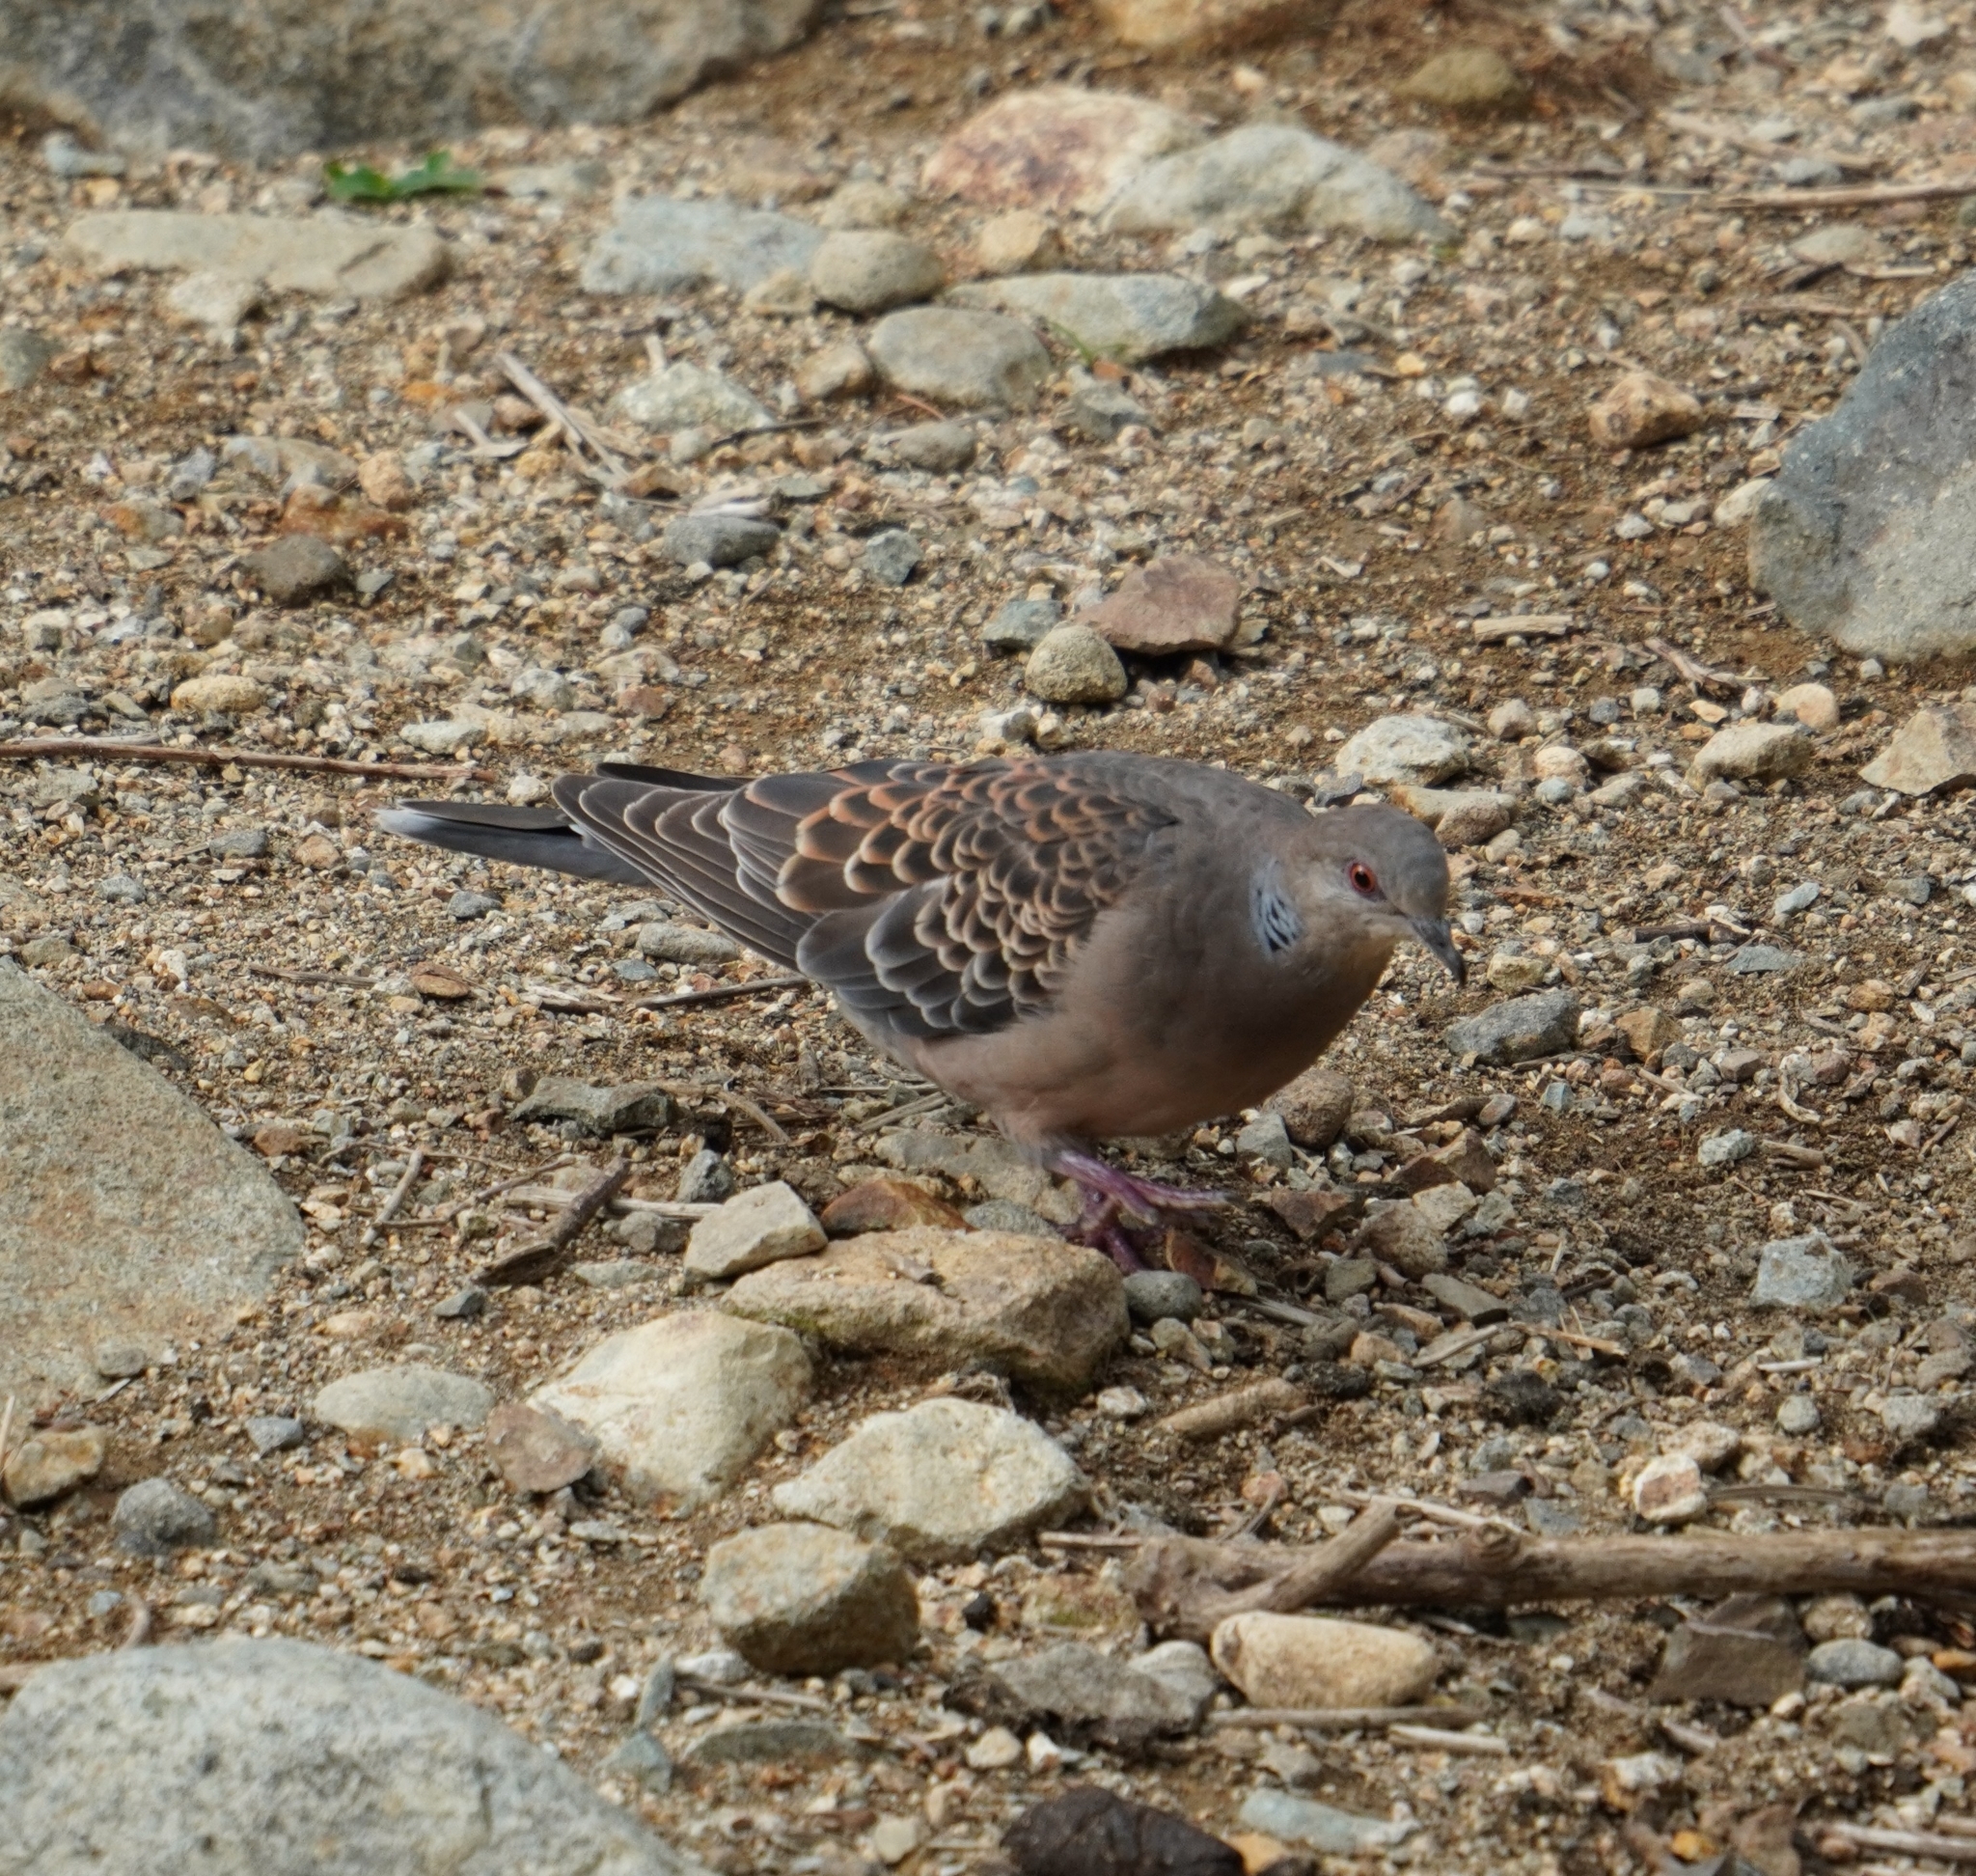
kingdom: Animalia
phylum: Chordata
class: Aves
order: Columbiformes
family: Columbidae
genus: Streptopelia
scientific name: Streptopelia orientalis
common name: Oriental turtle dove
